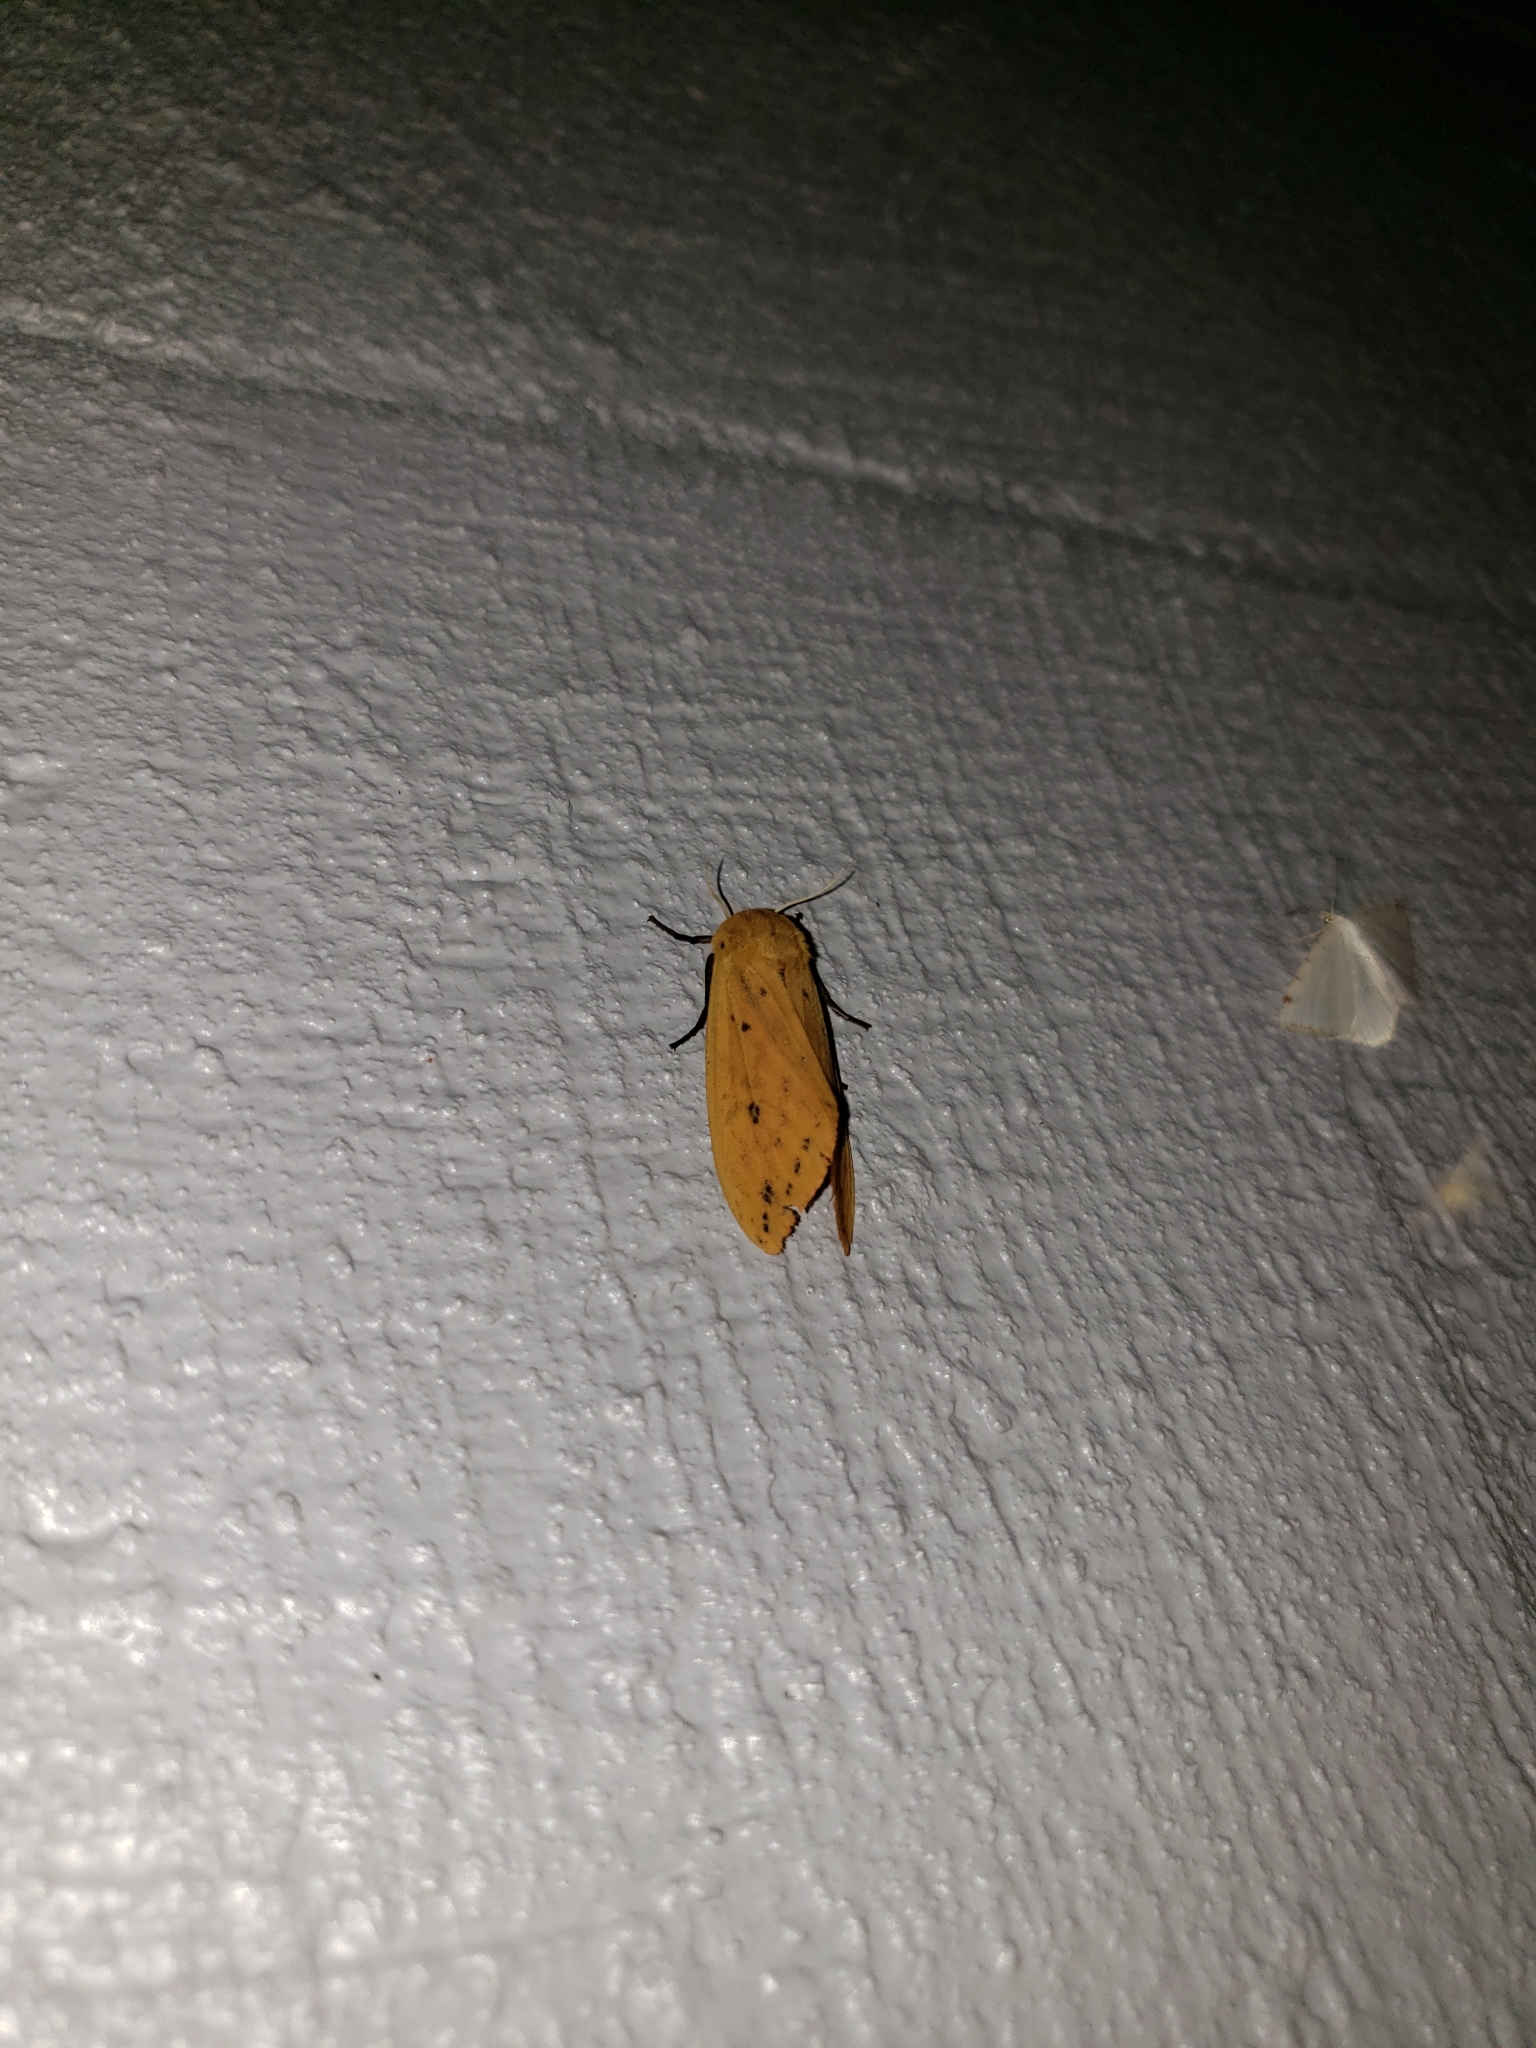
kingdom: Animalia
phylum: Arthropoda
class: Insecta
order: Lepidoptera
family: Erebidae
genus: Pyrrharctia
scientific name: Pyrrharctia isabella
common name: Isabella tiger moth
